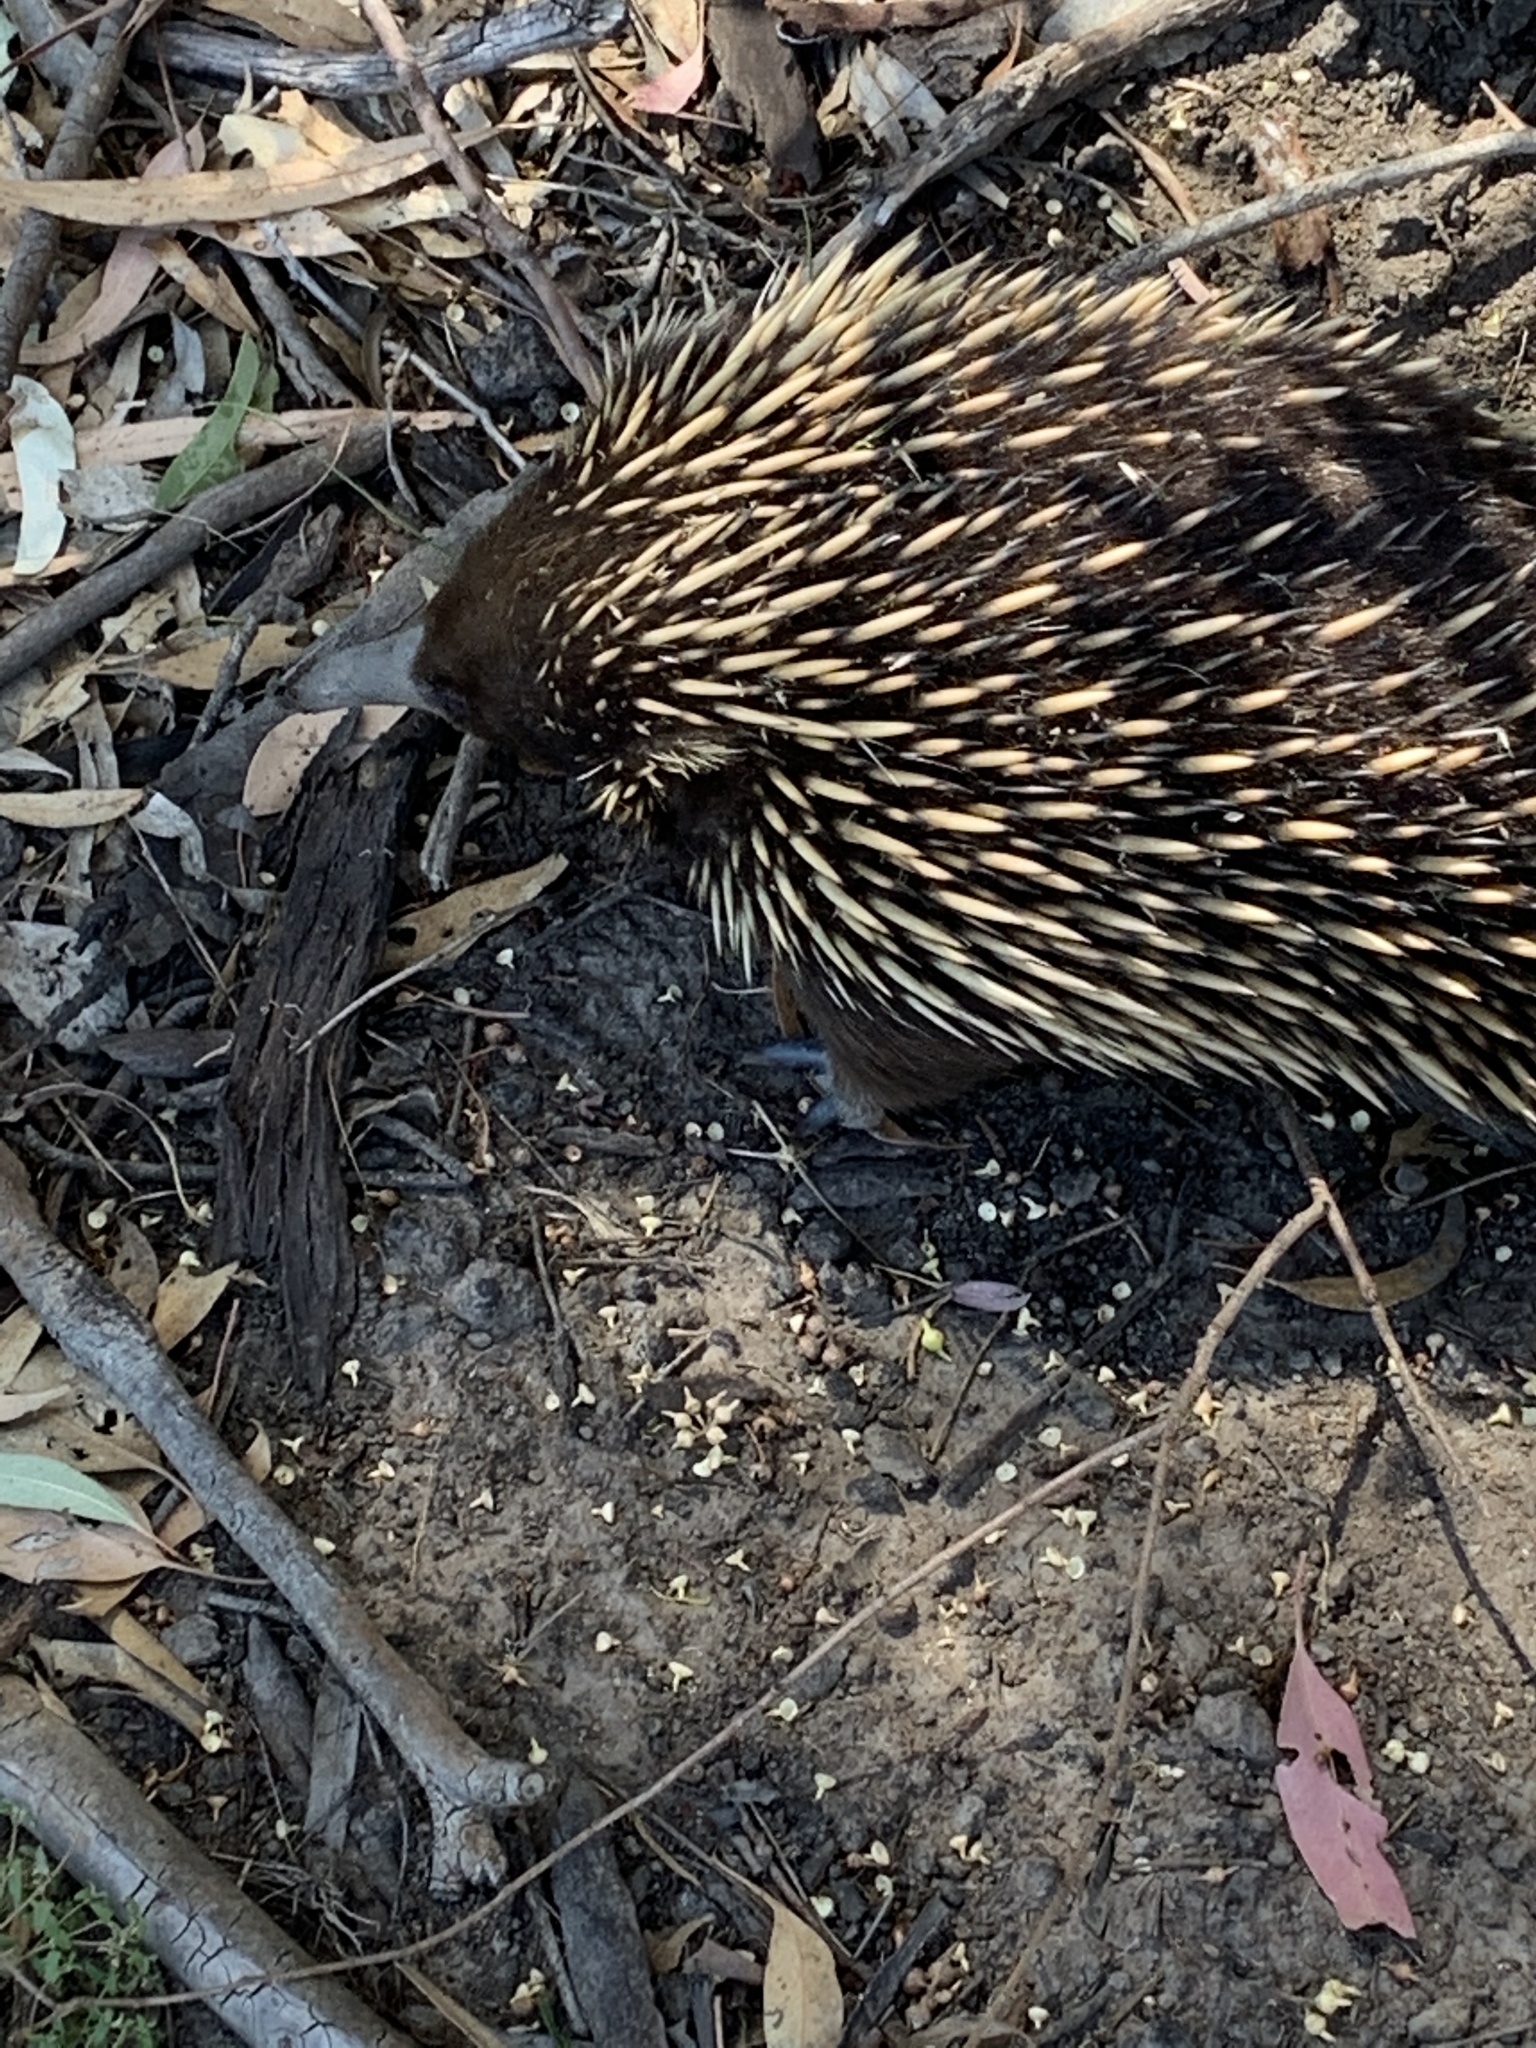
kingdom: Animalia
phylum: Chordata
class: Mammalia
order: Monotremata
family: Tachyglossidae
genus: Tachyglossus
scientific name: Tachyglossus aculeatus
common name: Short-beaked echidna
